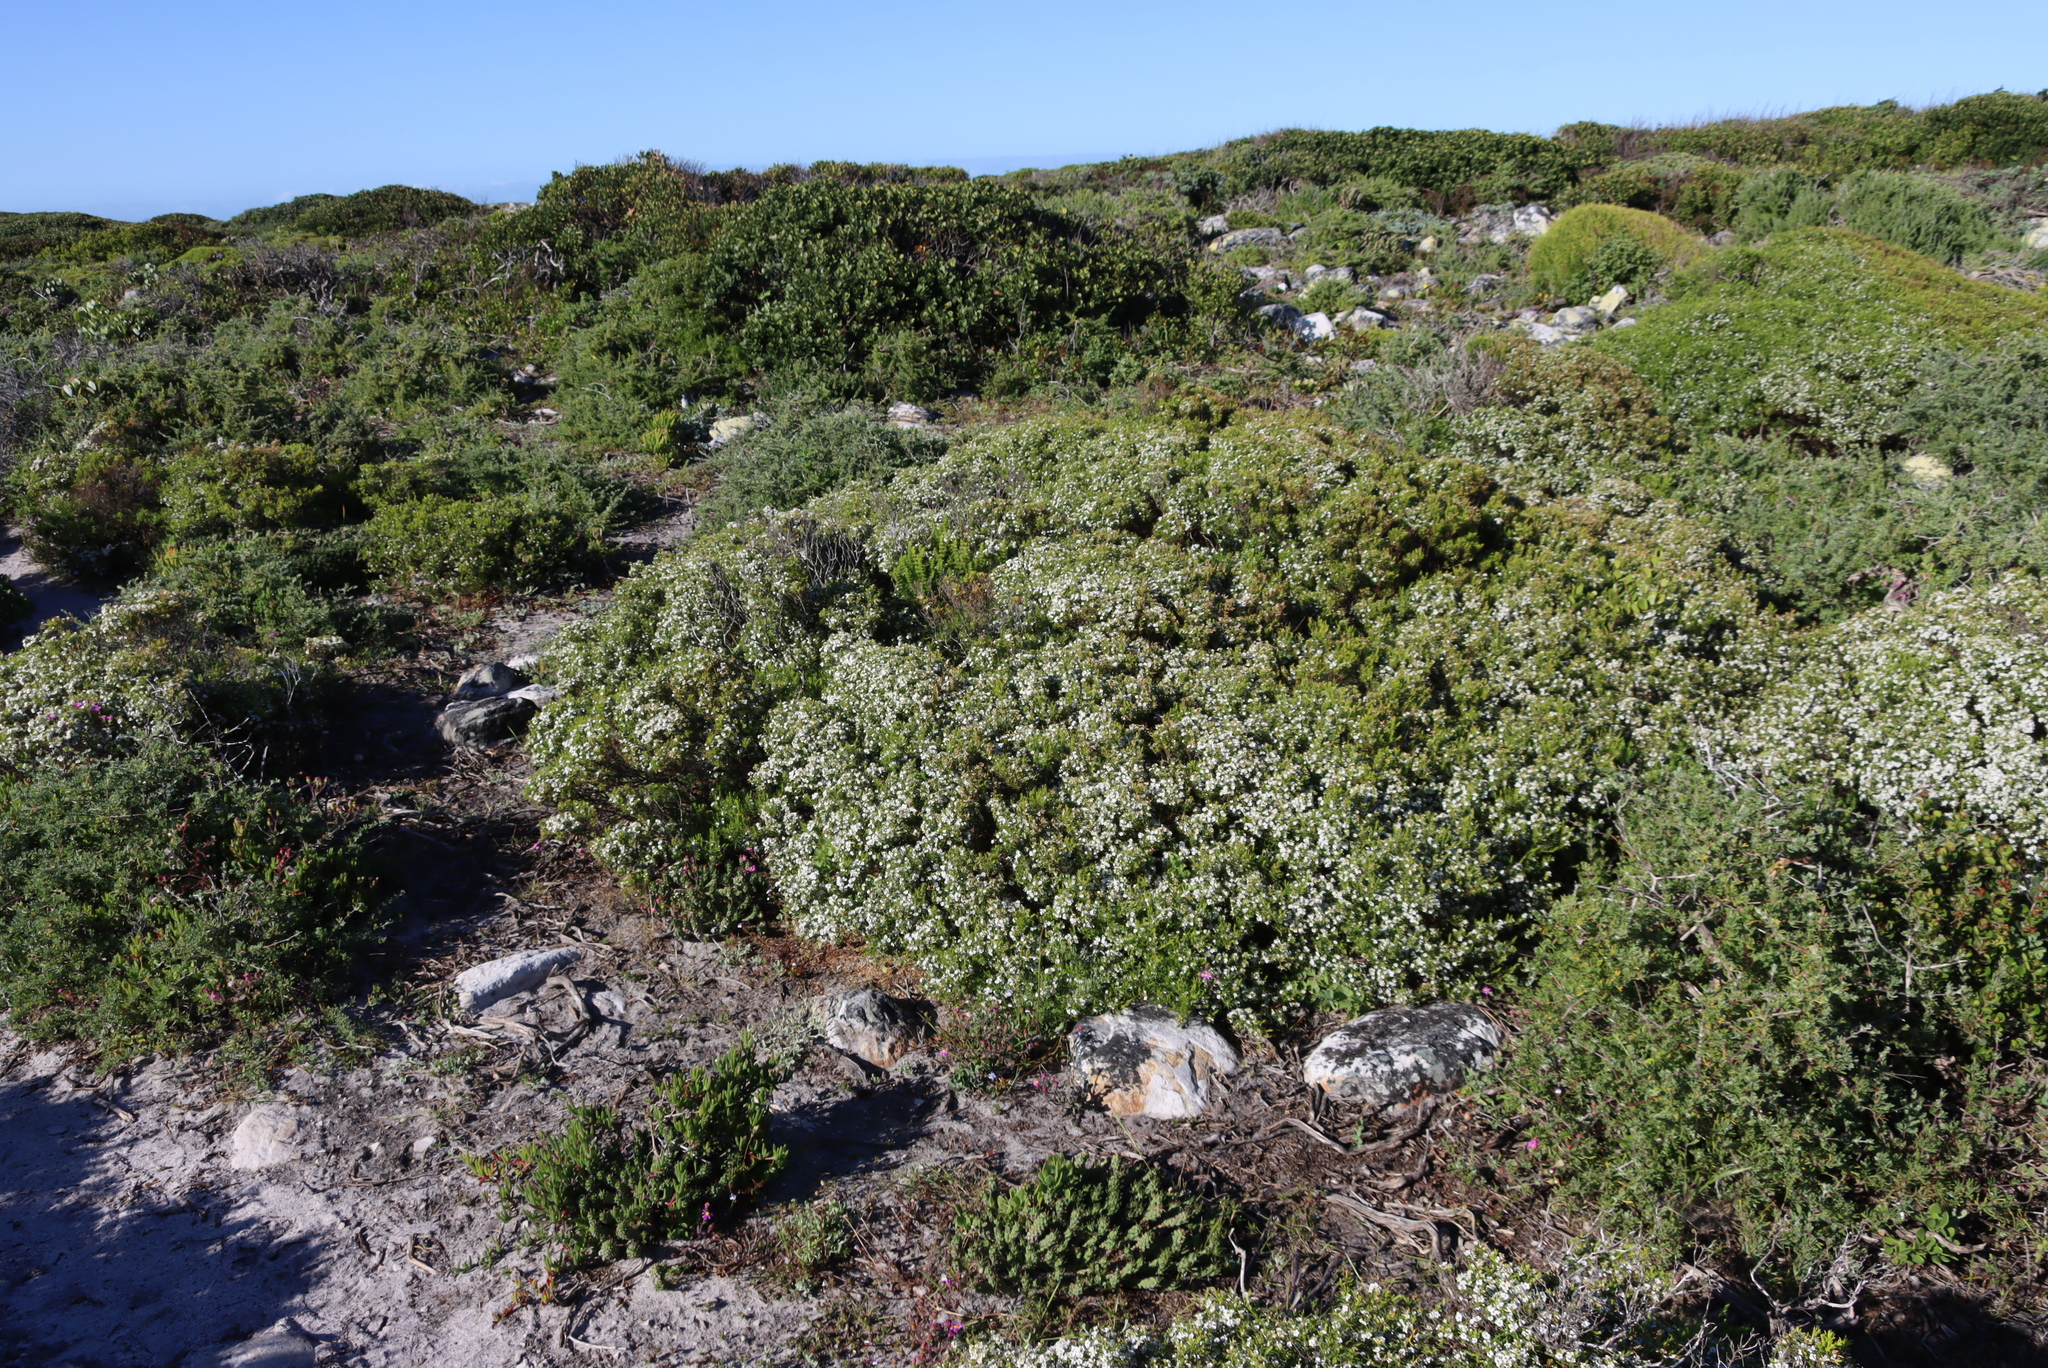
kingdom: Plantae
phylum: Tracheophyta
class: Magnoliopsida
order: Sapindales
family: Rutaceae
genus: Coleonema
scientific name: Coleonema album
